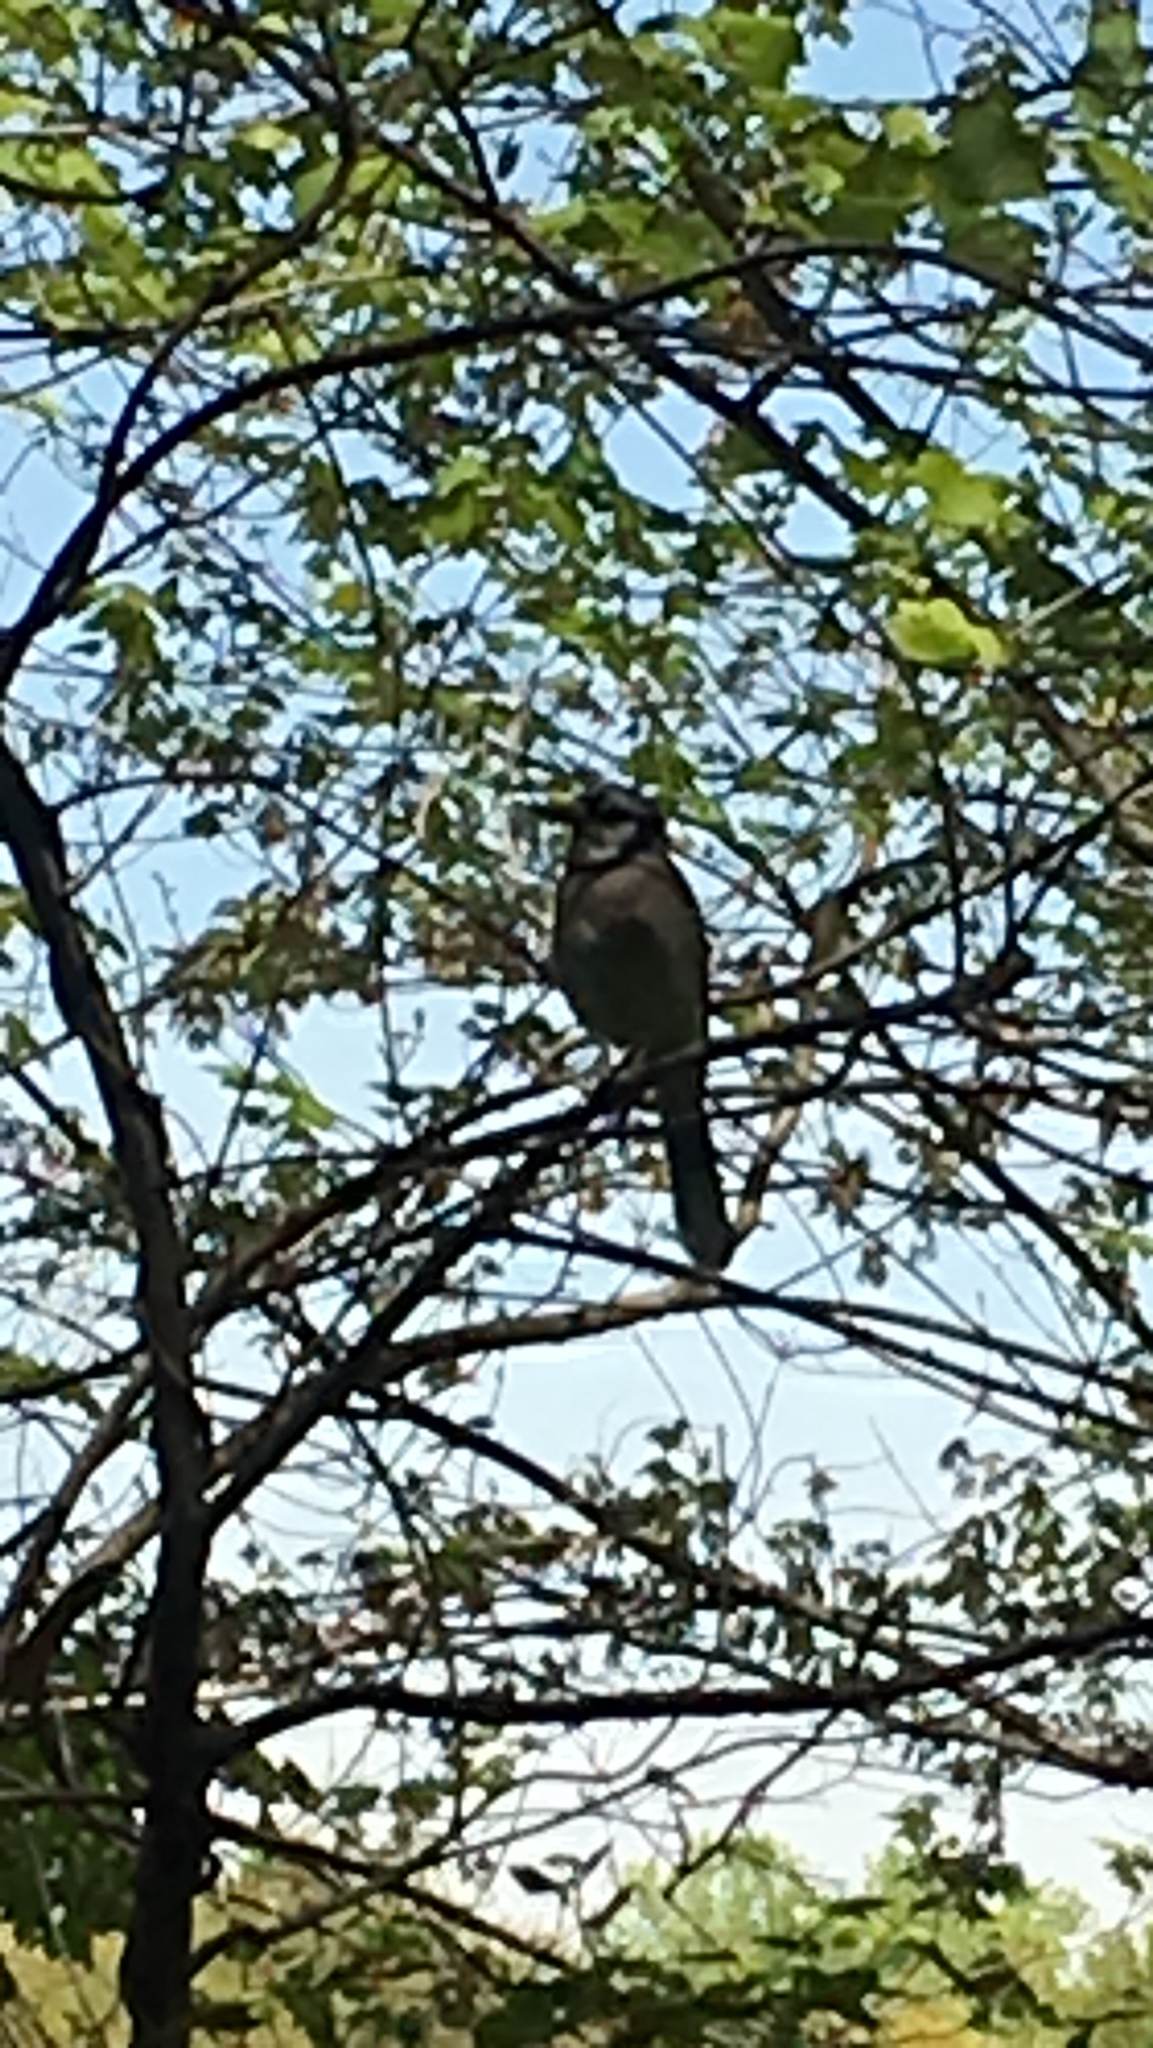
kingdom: Animalia
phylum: Chordata
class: Aves
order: Passeriformes
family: Corvidae
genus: Cyanocitta
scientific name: Cyanocitta cristata
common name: Blue jay
